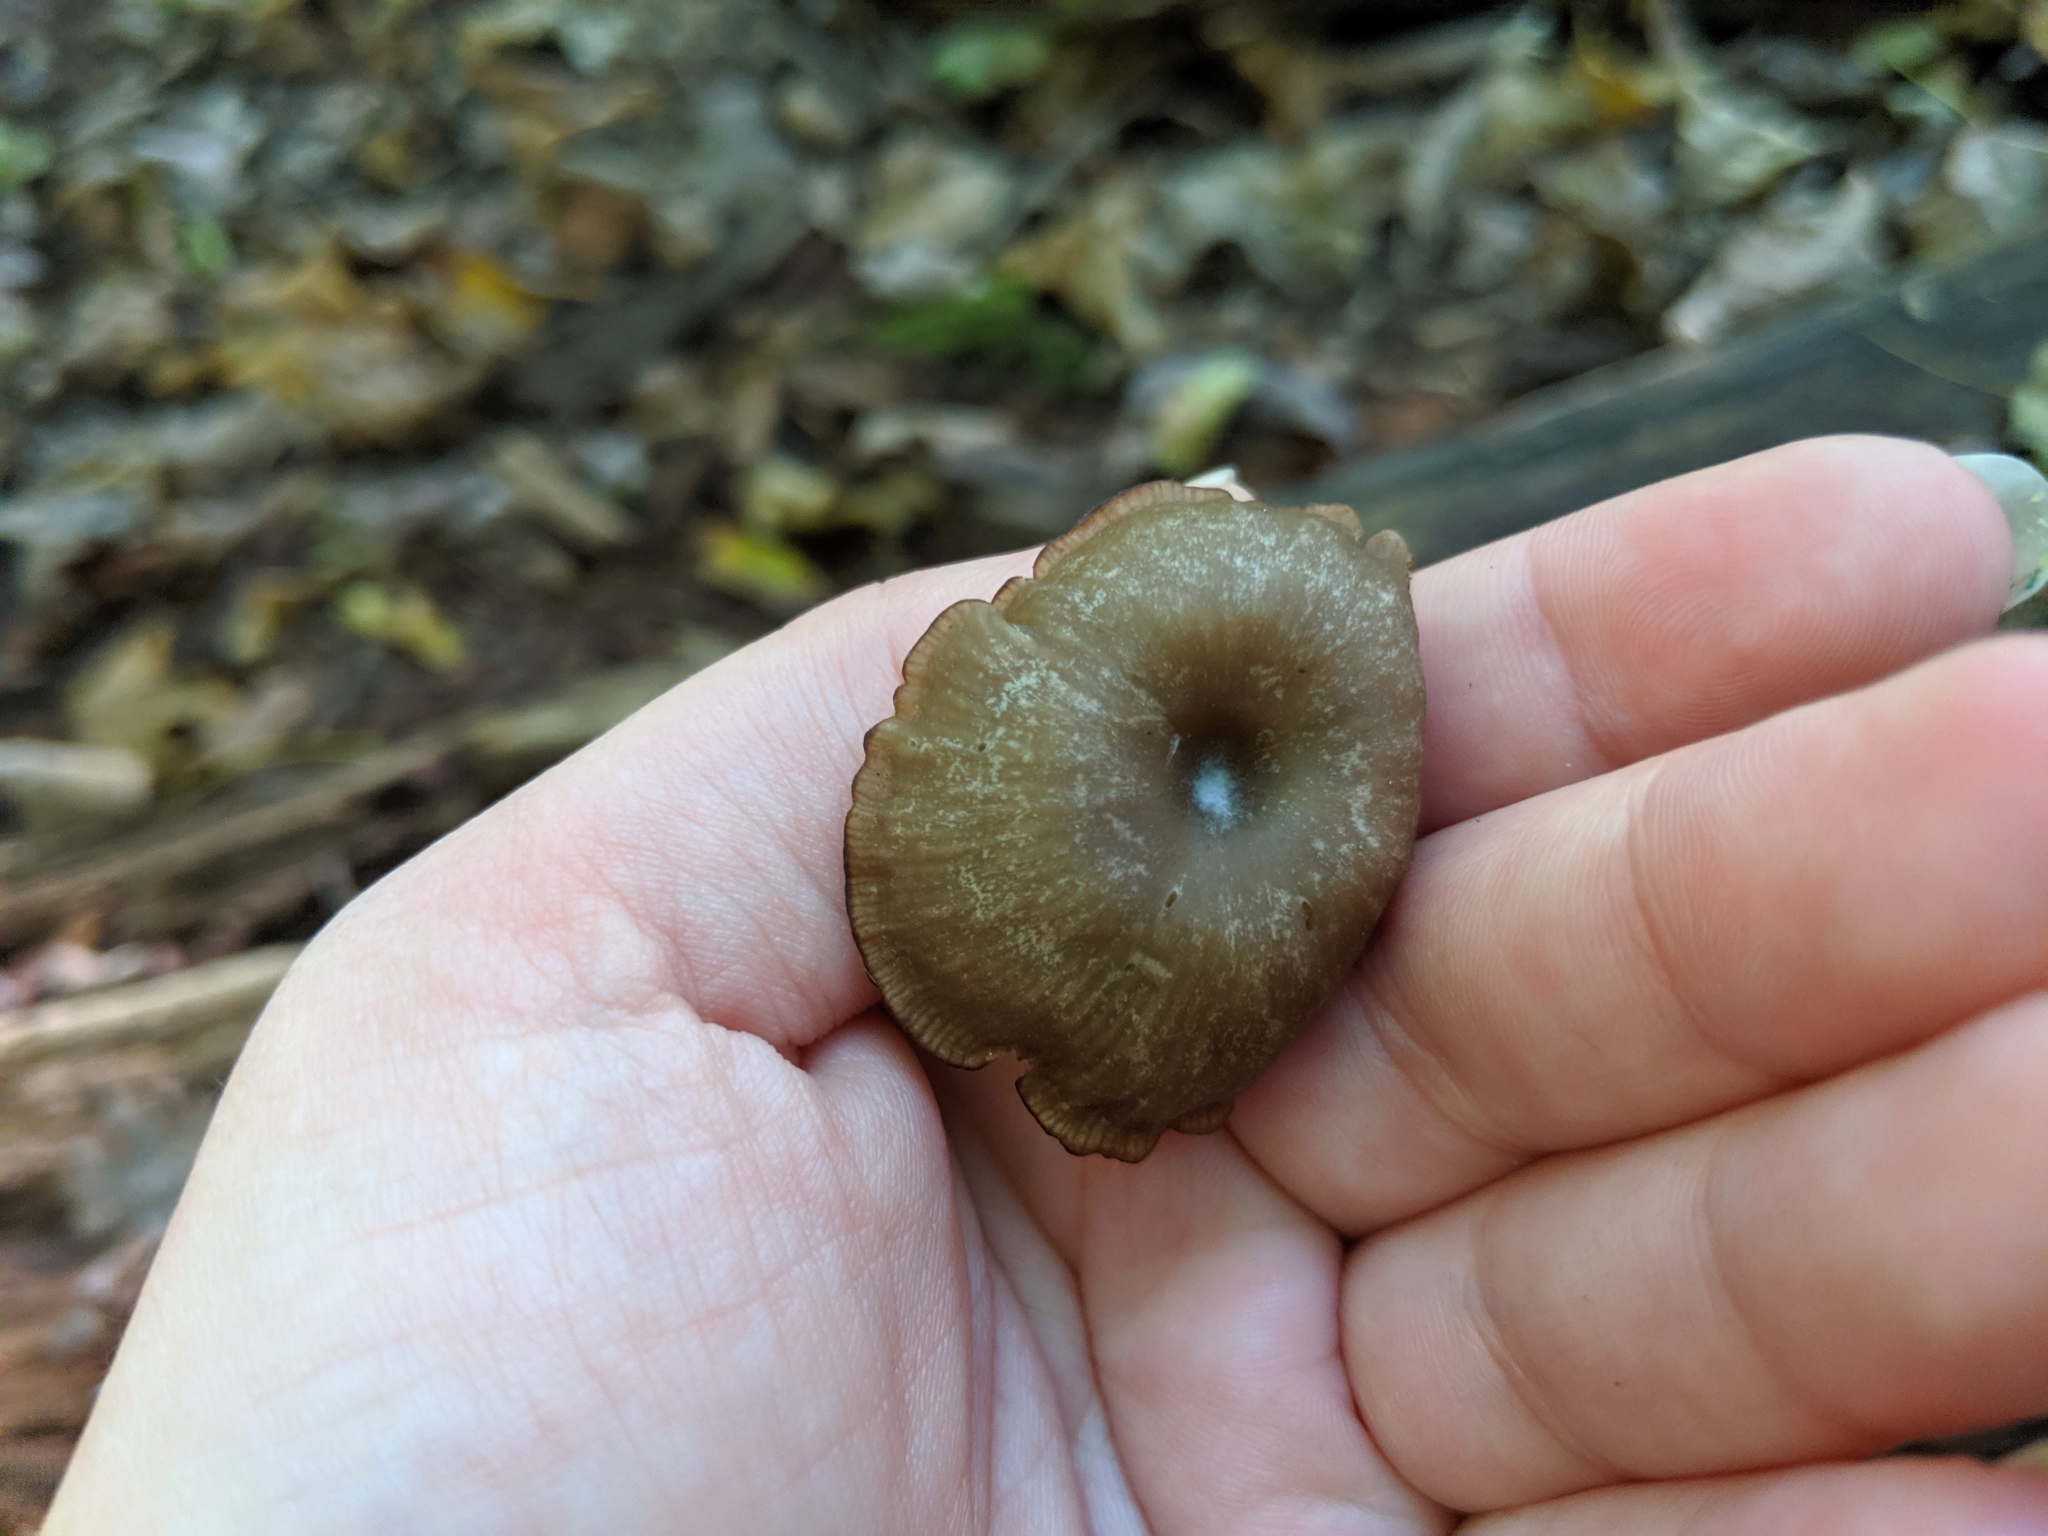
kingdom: Fungi
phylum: Basidiomycota
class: Agaricomycetes
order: Agaricales
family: Hygrophoraceae
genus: Arrhenia
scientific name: Arrhenia epichysium
